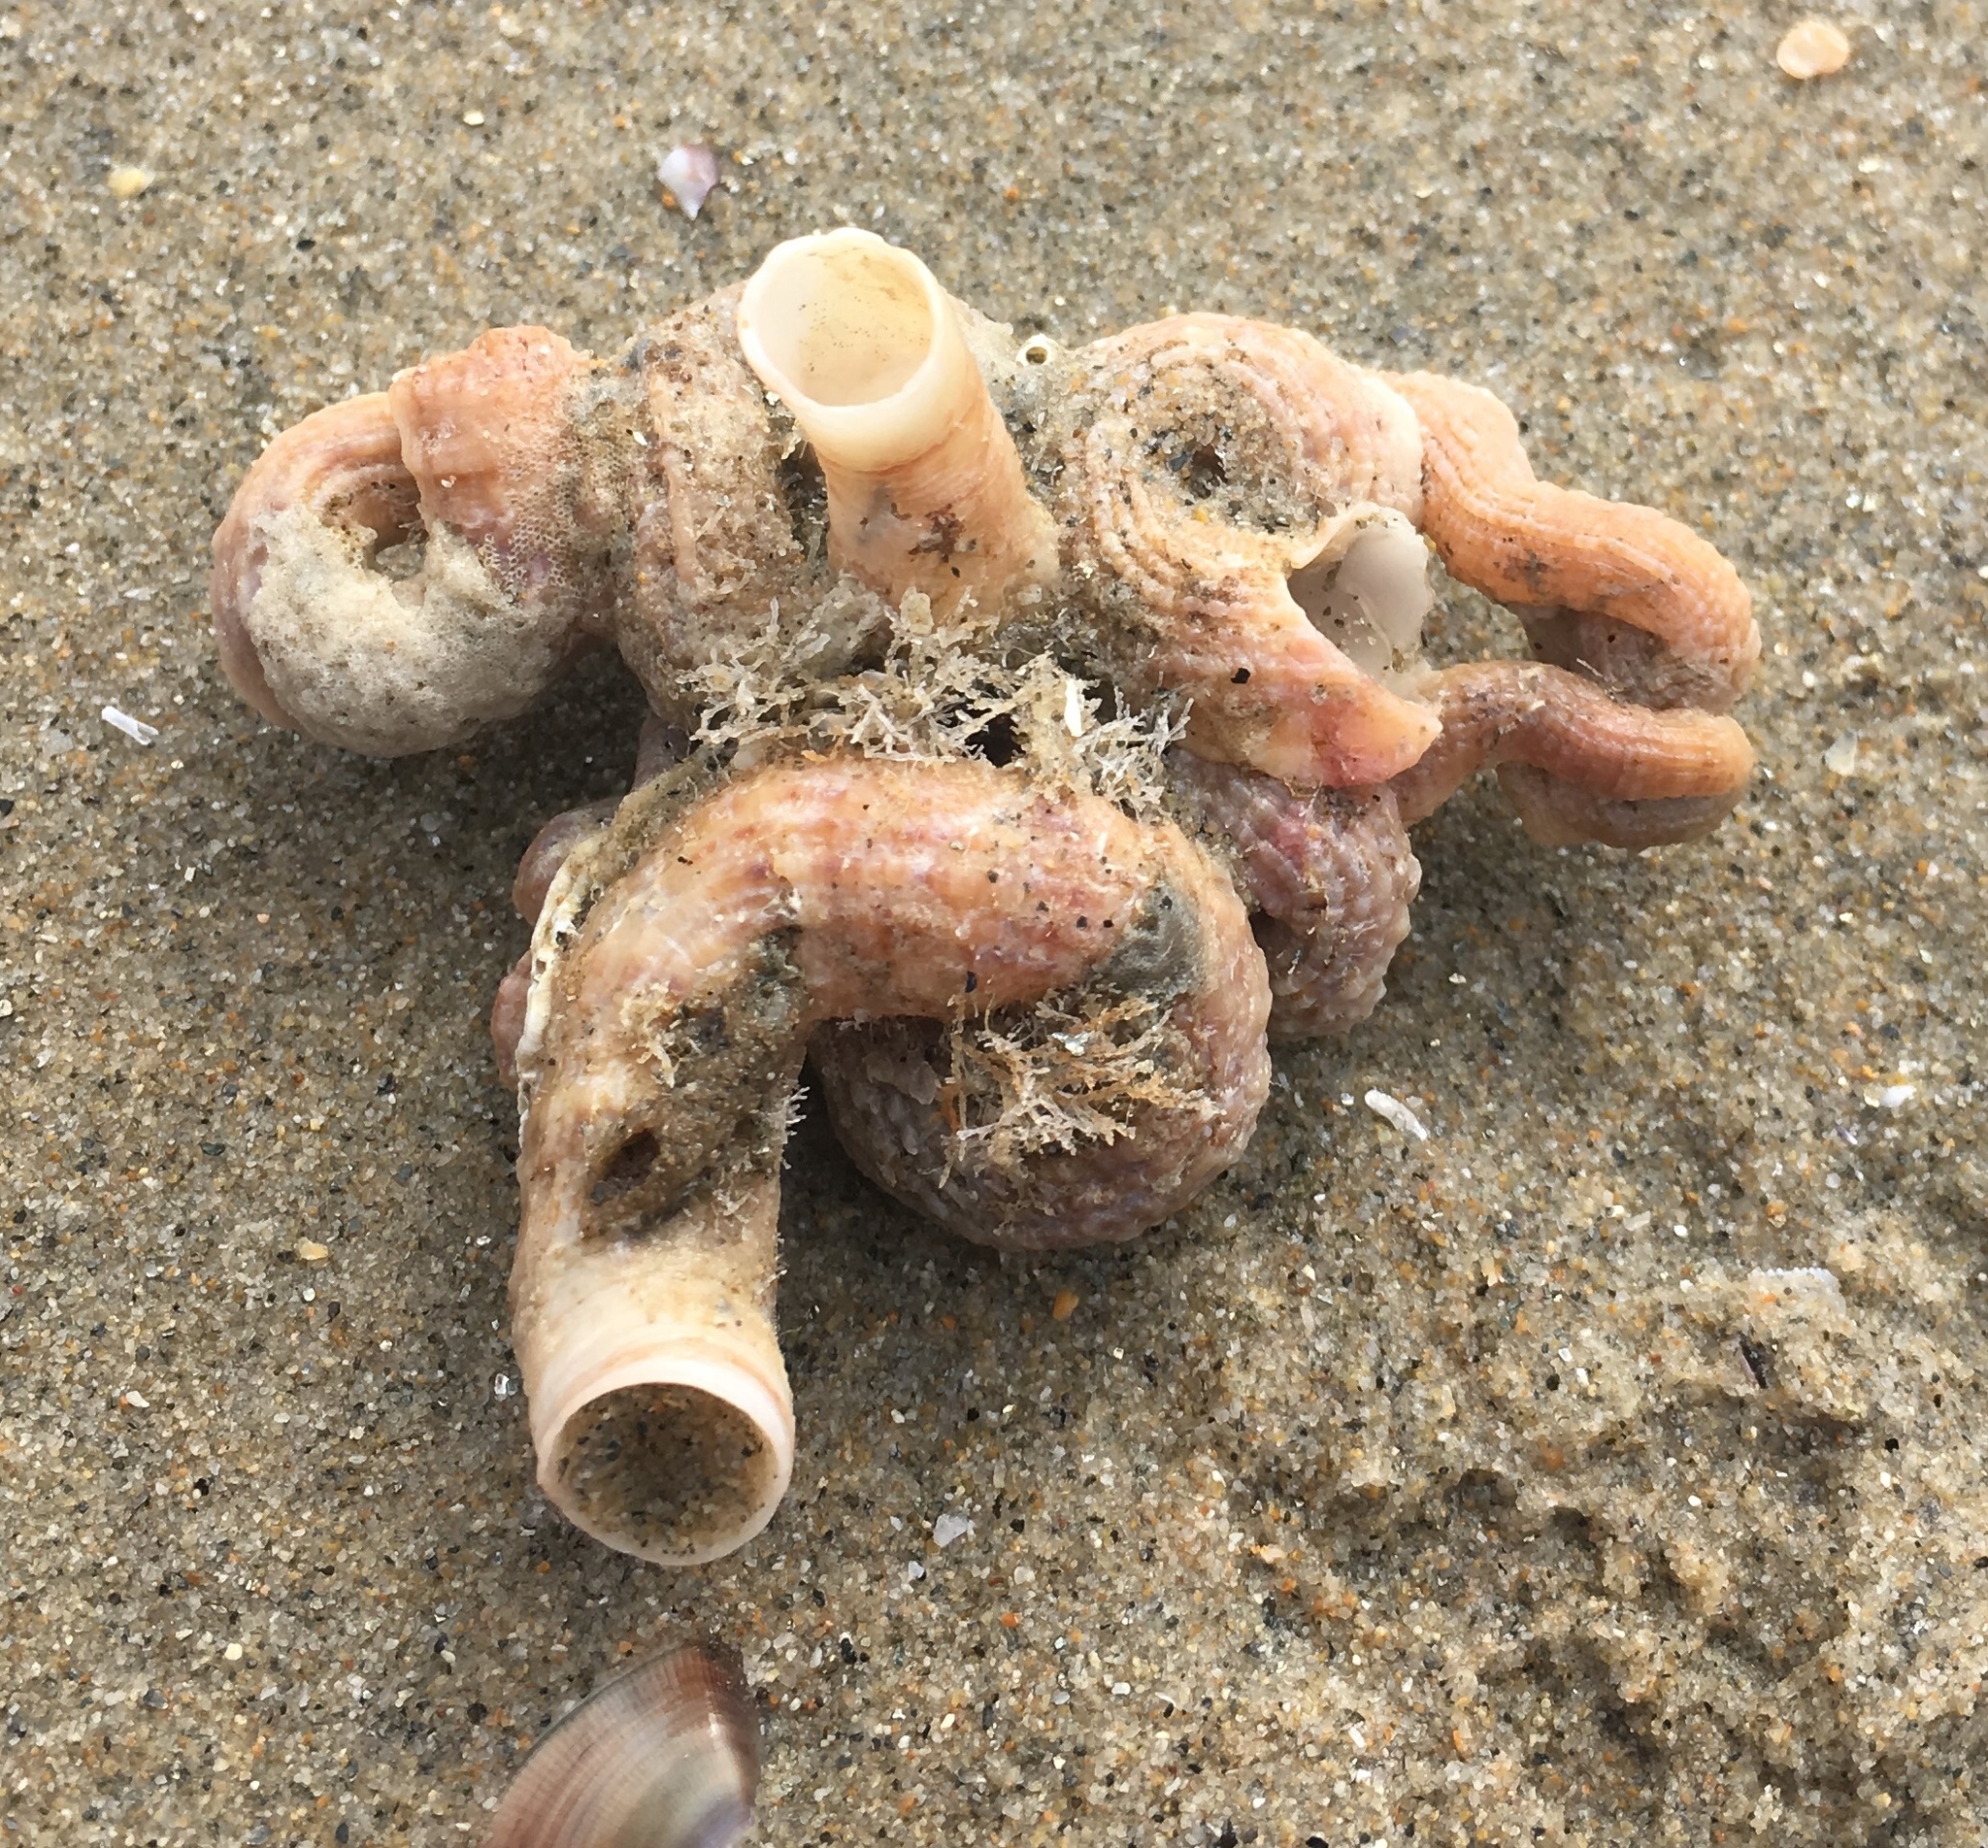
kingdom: Animalia
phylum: Mollusca
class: Gastropoda
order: Littorinimorpha
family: Vermetidae
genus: Thylacodes
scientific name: Thylacodes squamigerus
